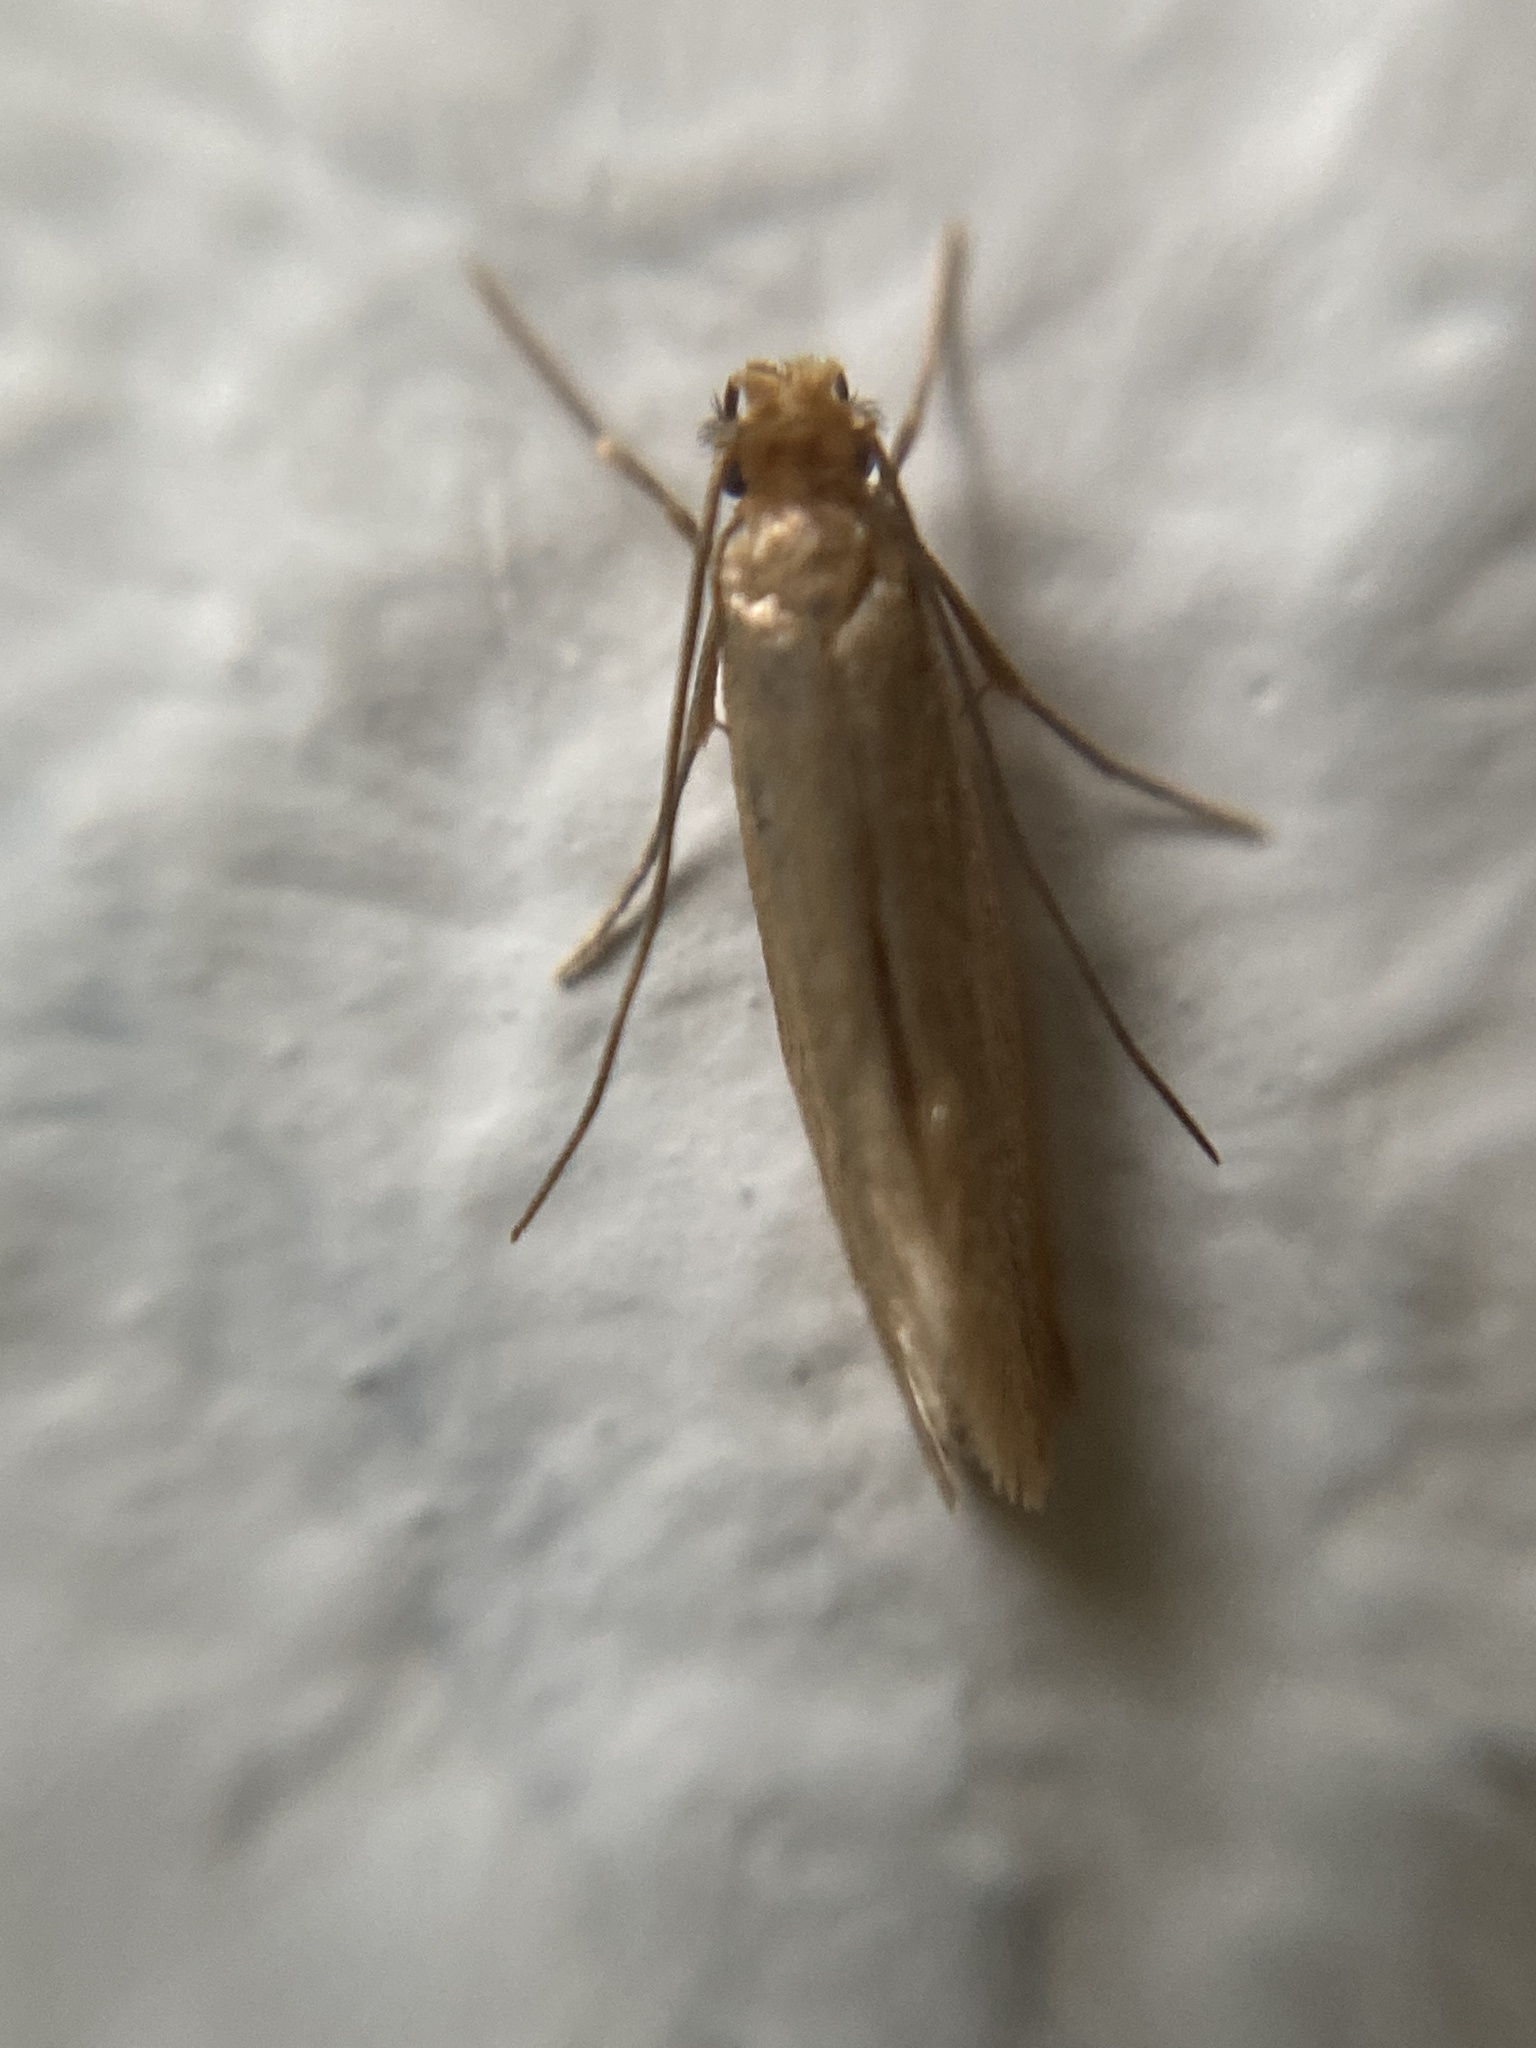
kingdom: Animalia
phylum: Arthropoda
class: Insecta
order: Lepidoptera
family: Tineidae
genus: Tineola
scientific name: Tineola bisselliella
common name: Webbing clothes moth
